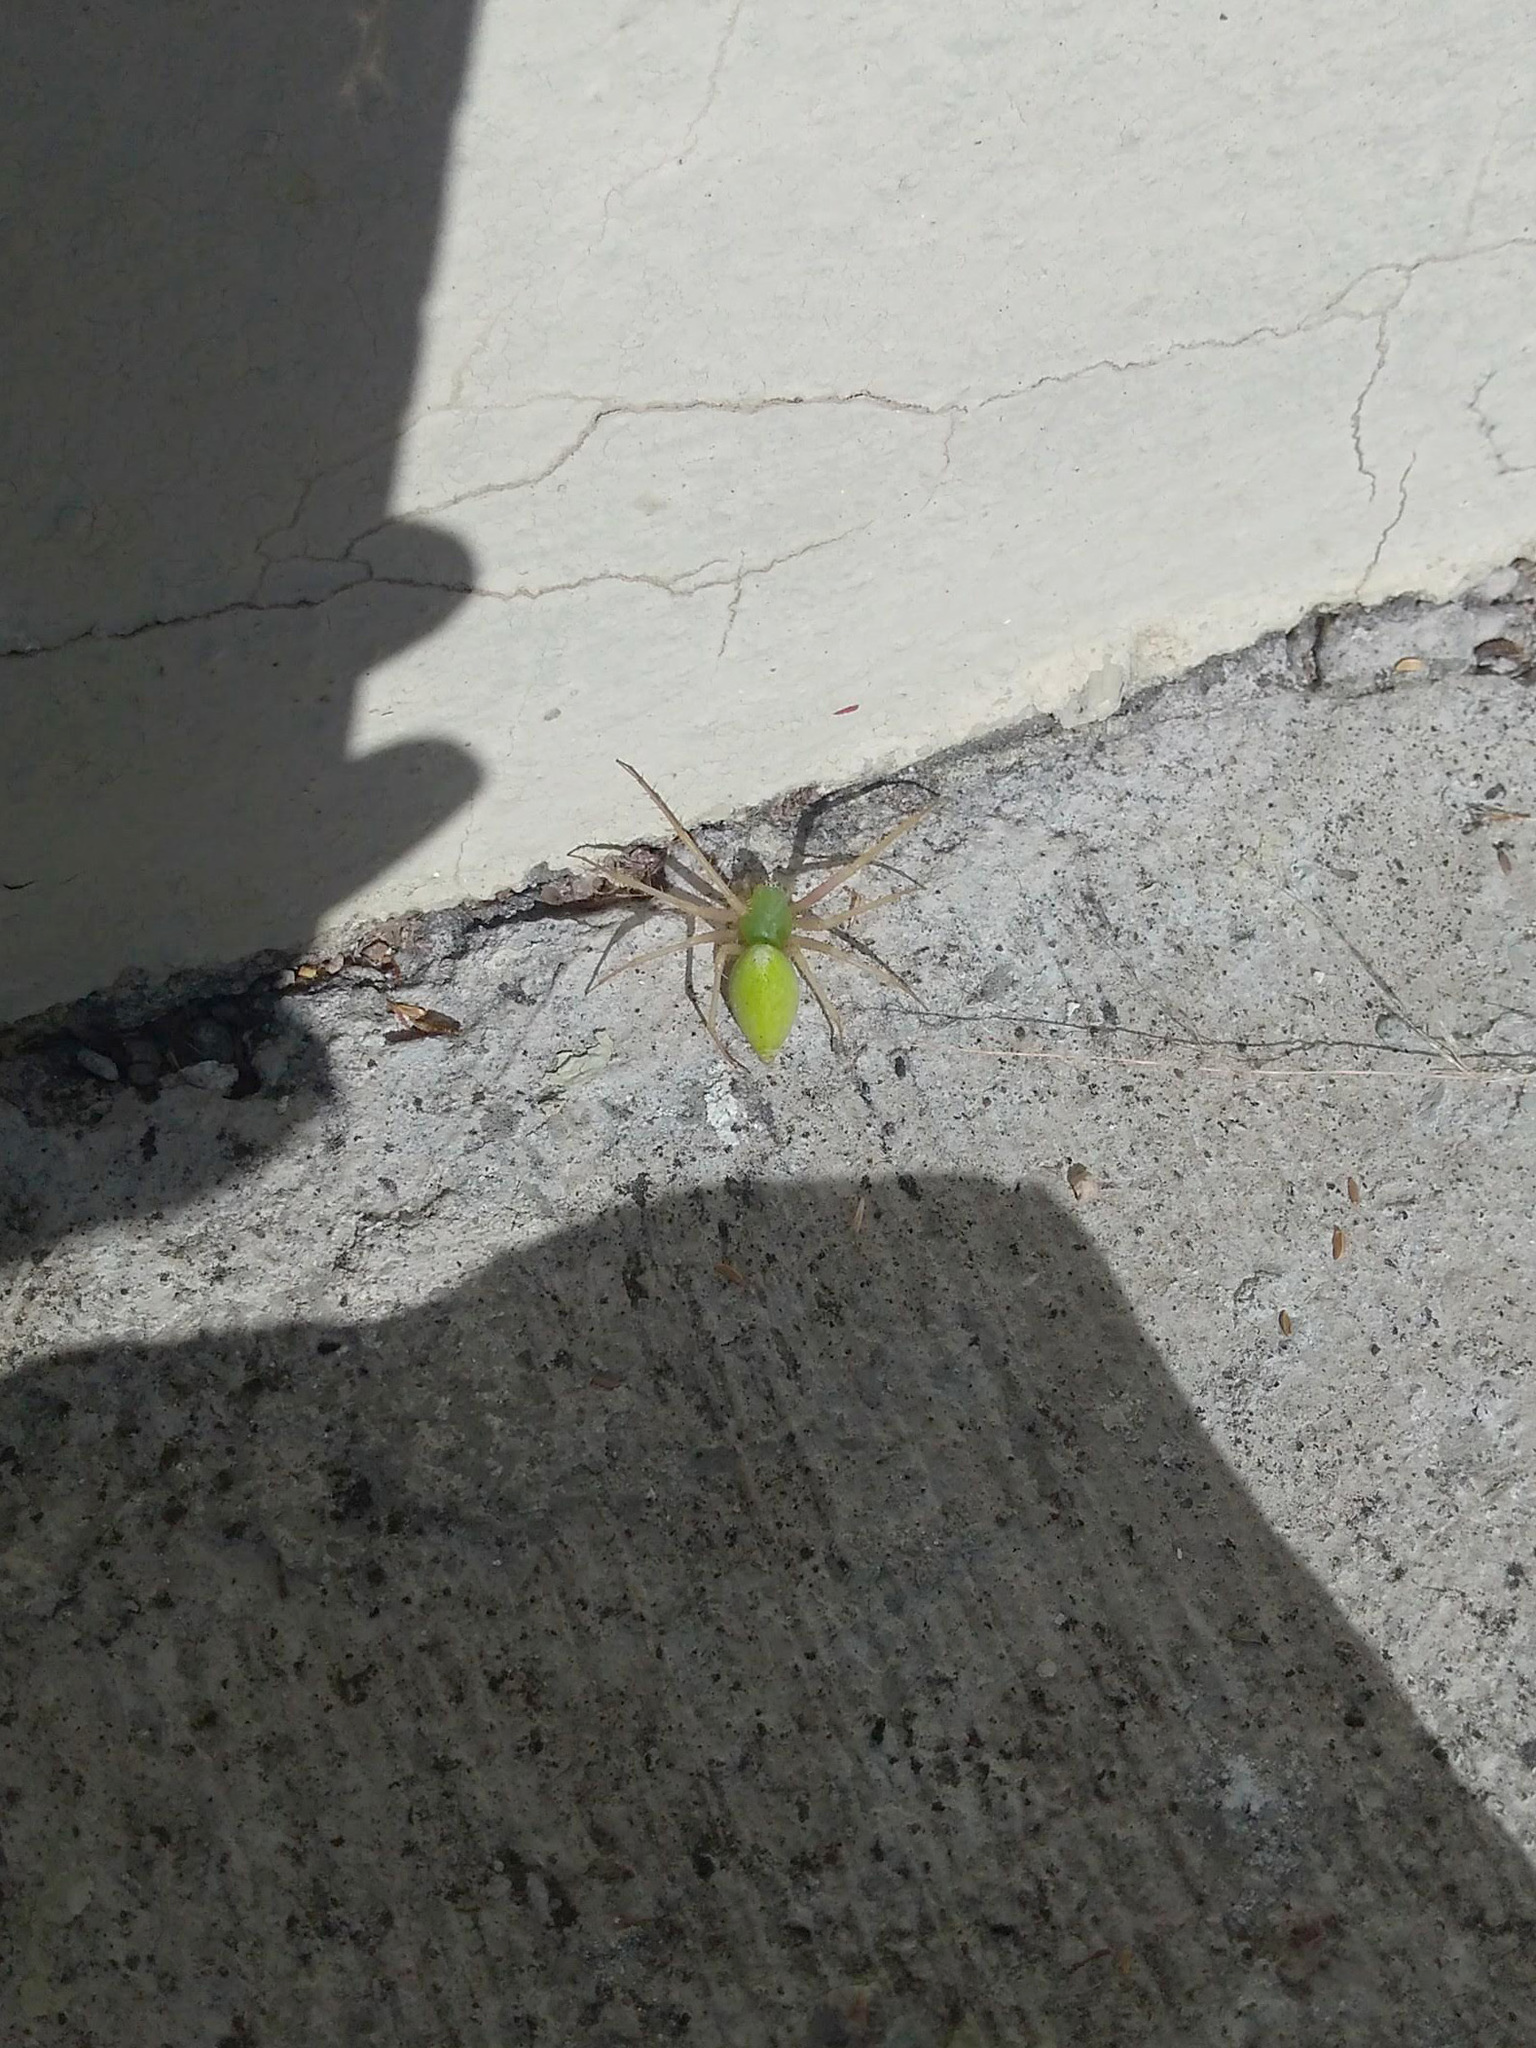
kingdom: Animalia
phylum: Arthropoda
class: Arachnida
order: Araneae
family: Oxyopidae
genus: Peucetia
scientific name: Peucetia longipalpis
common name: Lynx spiders
